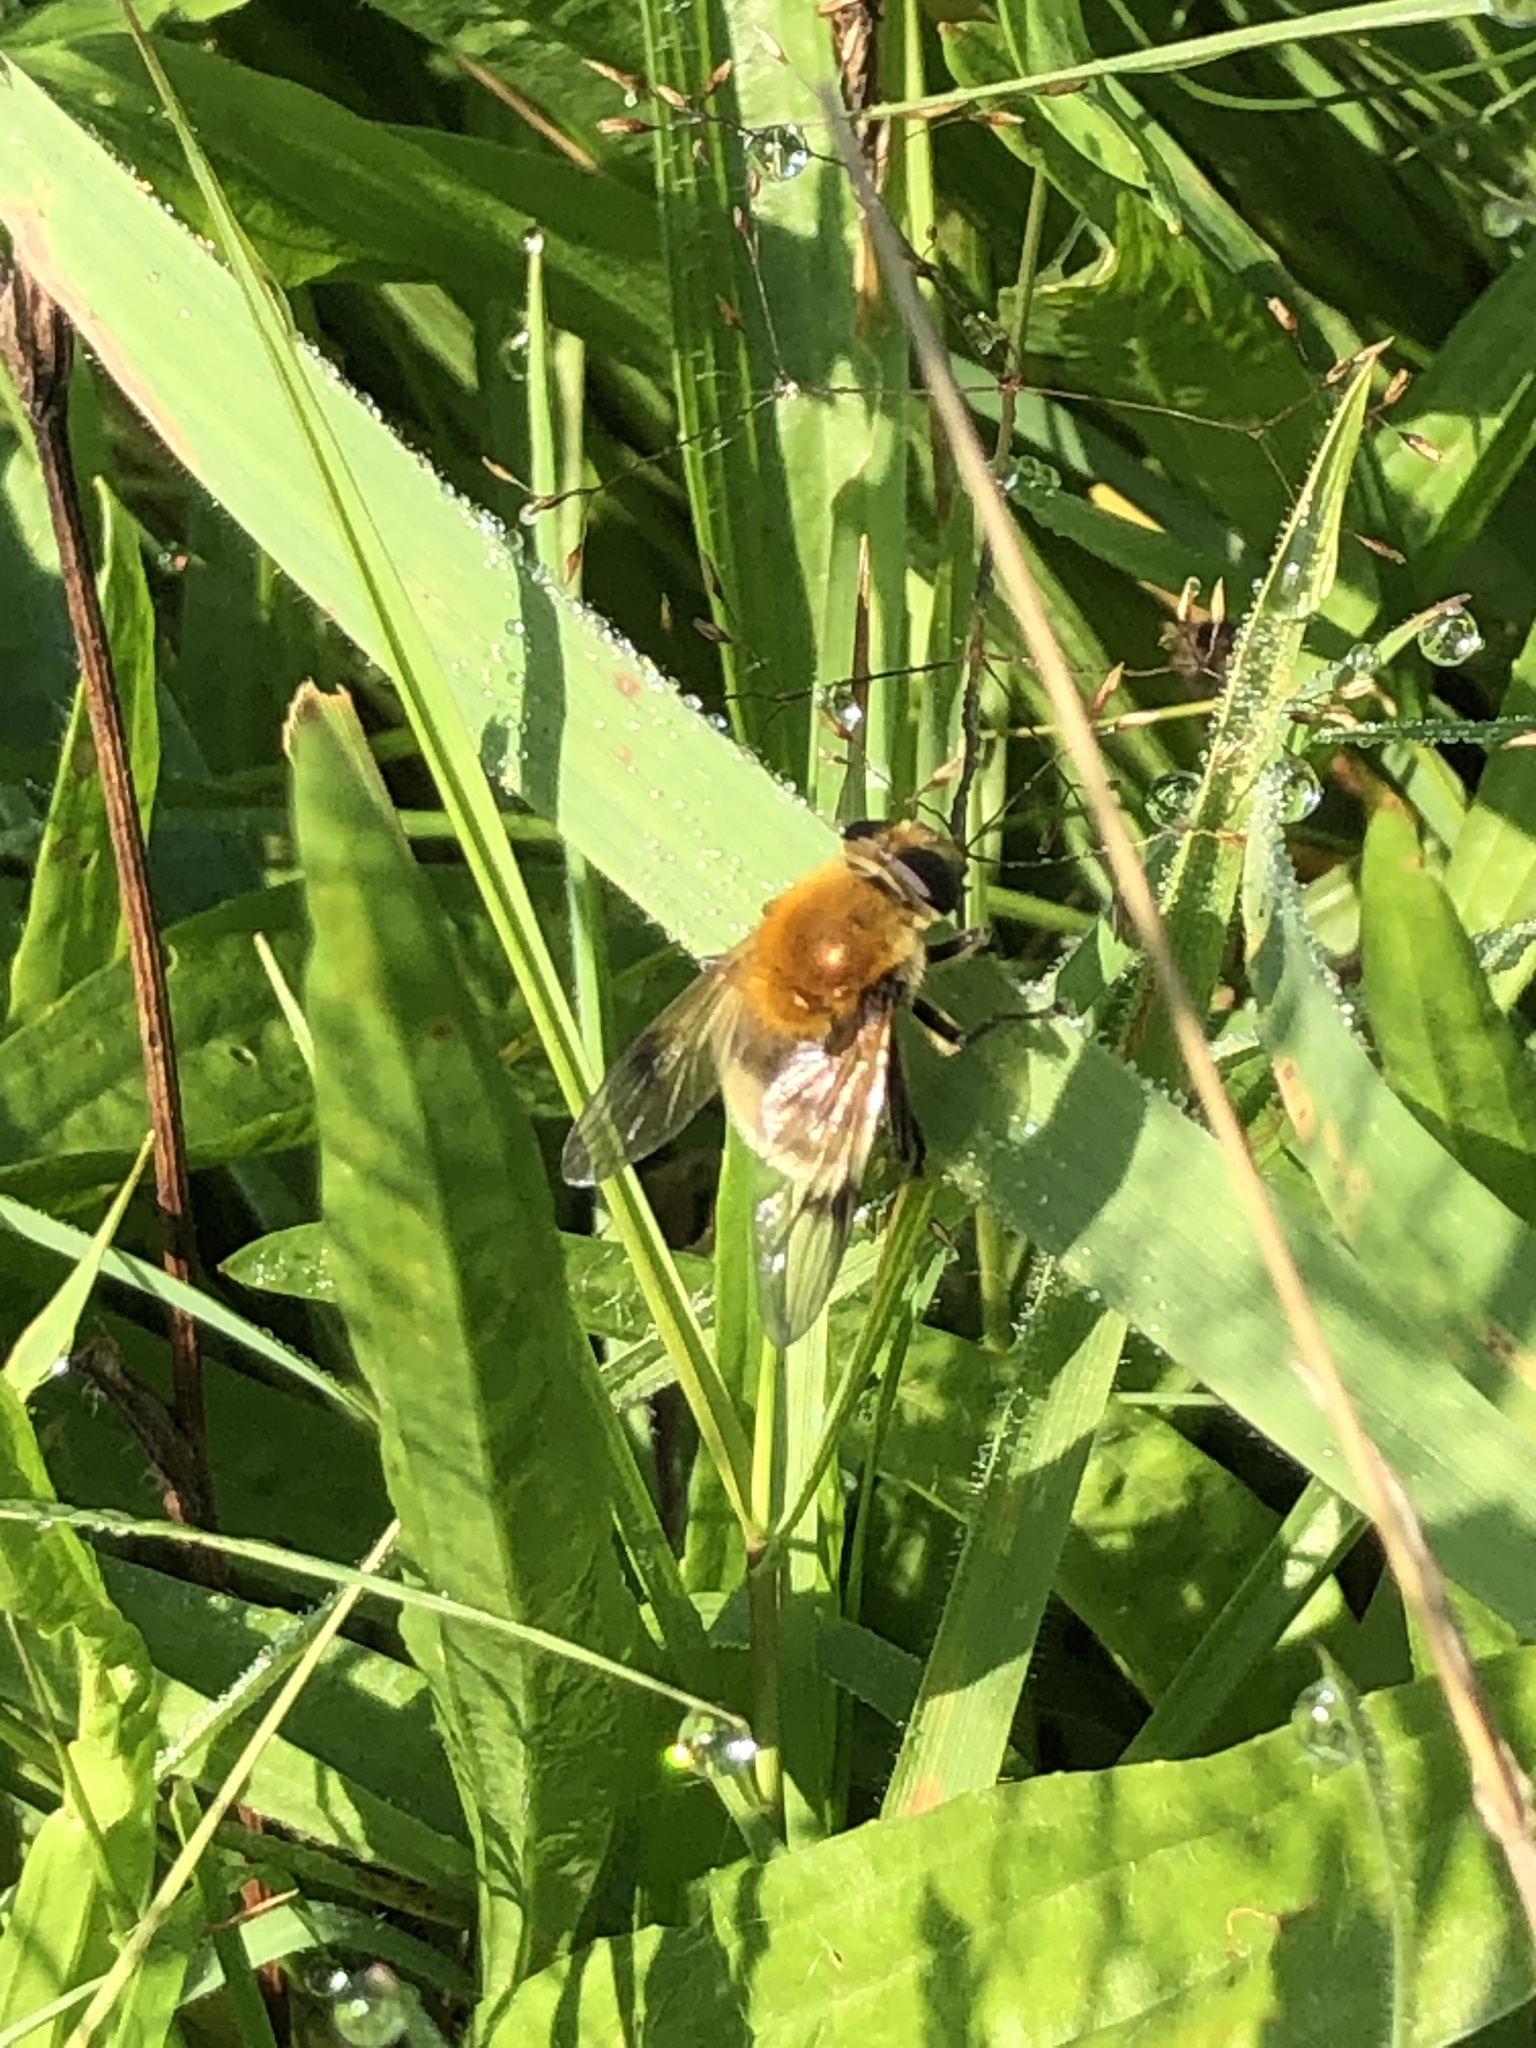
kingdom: Animalia
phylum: Arthropoda
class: Insecta
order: Diptera
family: Syrphidae
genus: Sericomyia
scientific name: Sericomyia superbiens
